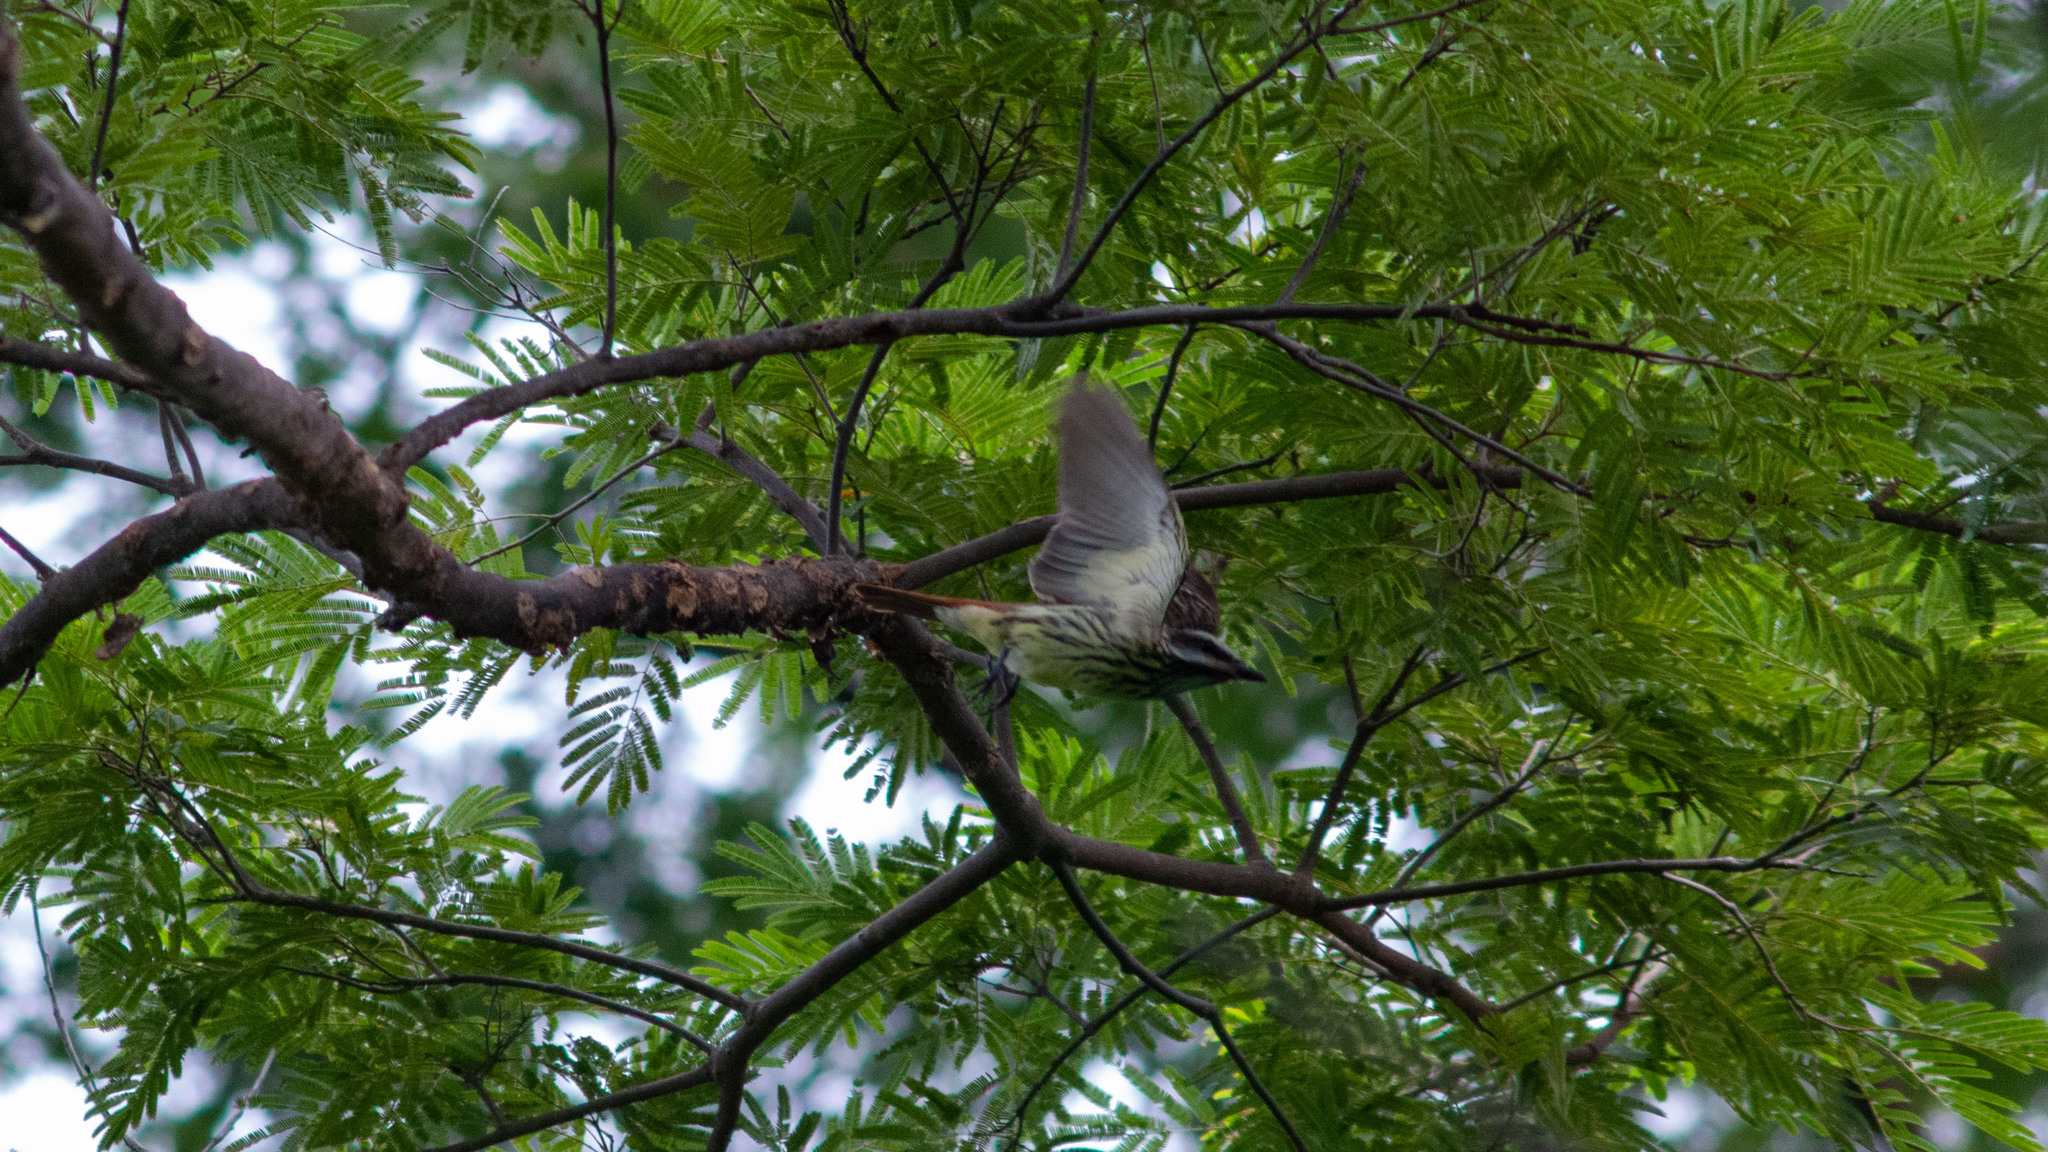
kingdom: Animalia
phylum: Chordata
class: Aves
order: Passeriformes
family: Tyrannidae
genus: Myiodynastes
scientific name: Myiodynastes luteiventris
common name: Sulphur-bellied flycatcher
